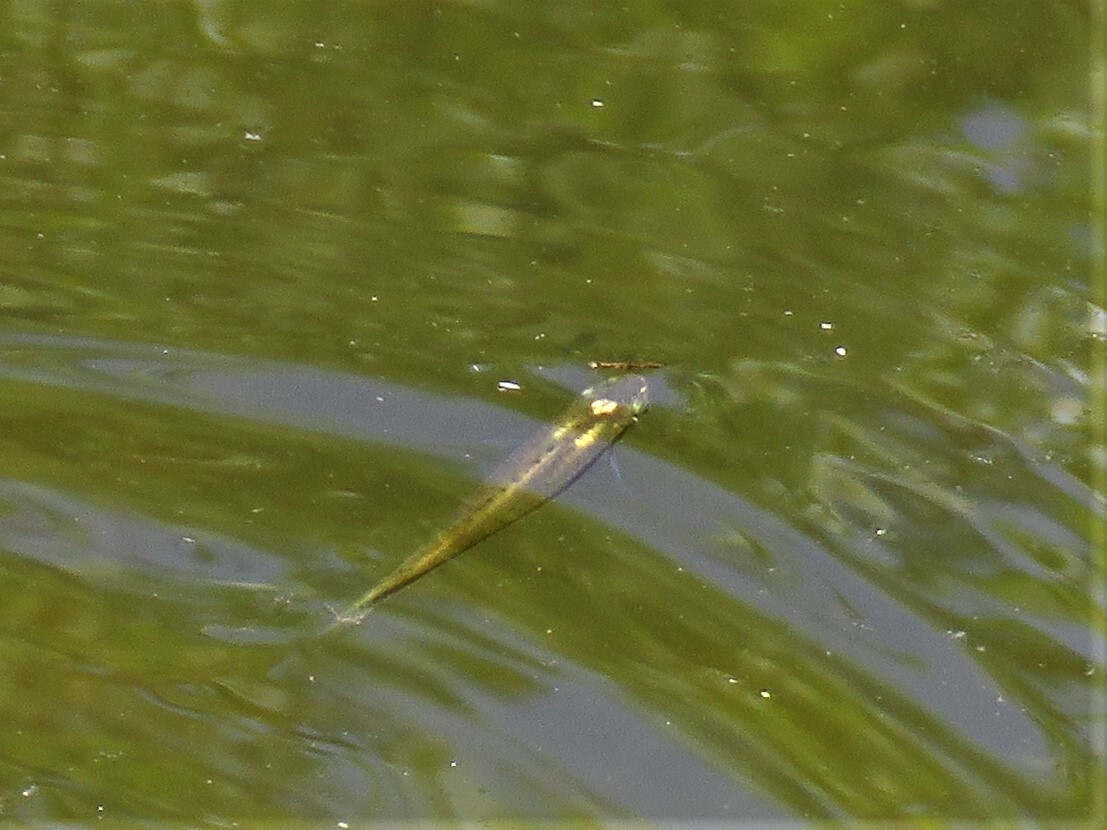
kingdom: Animalia
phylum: Chordata
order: Cyprinodontiformes
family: Fundulidae
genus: Fundulus
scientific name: Fundulus notatus
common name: Blackstripe topminnow
